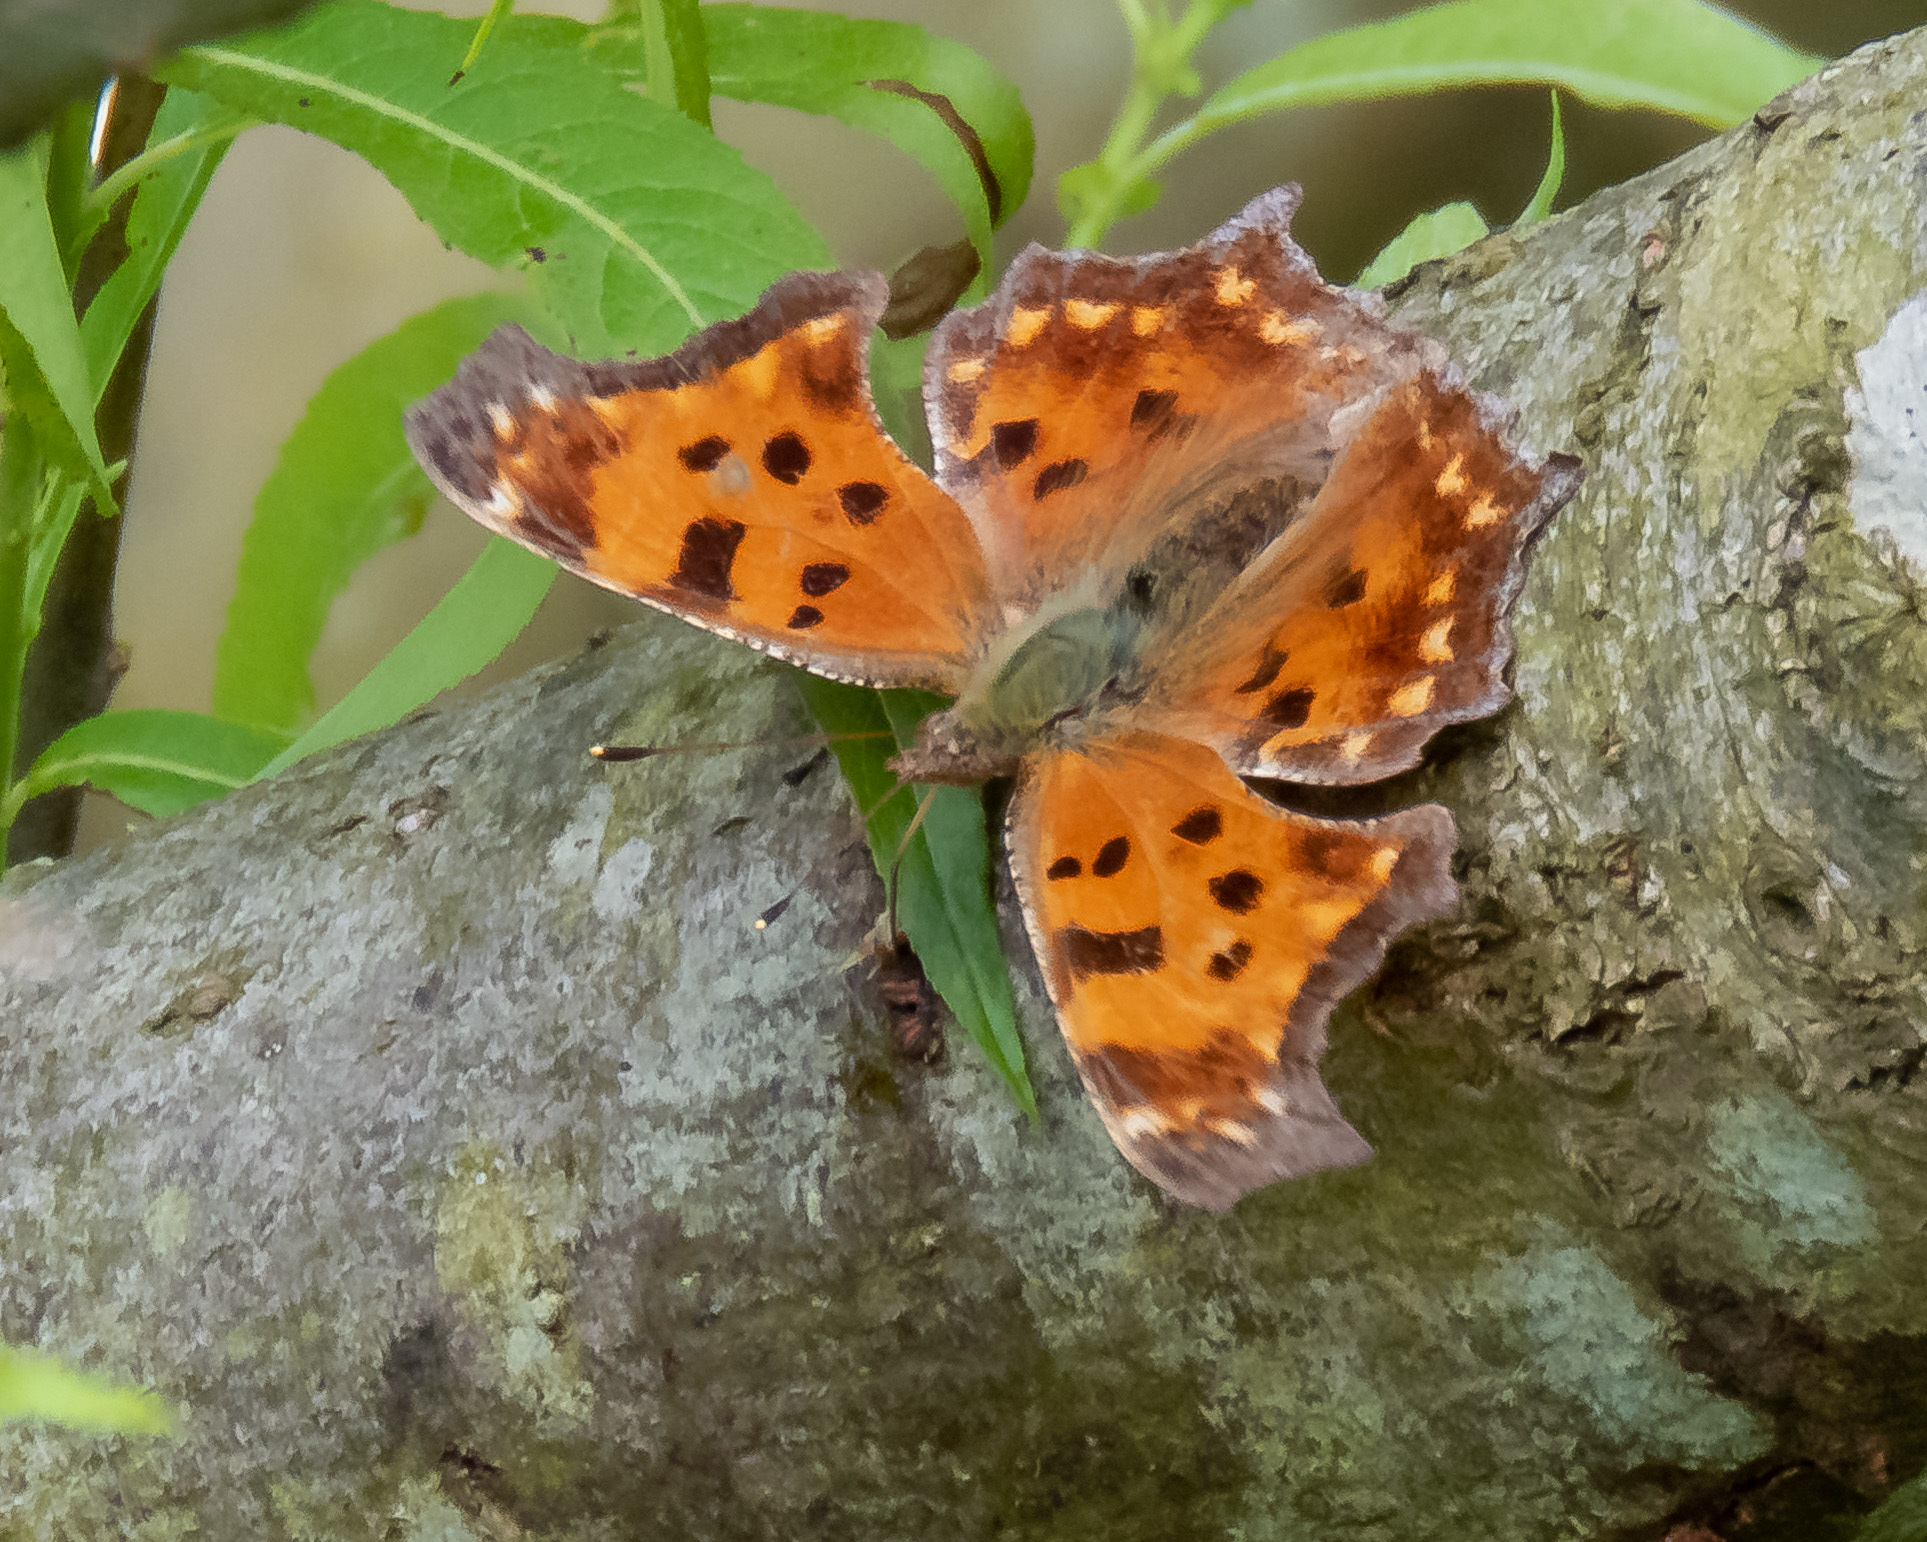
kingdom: Animalia
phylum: Arthropoda
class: Insecta
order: Lepidoptera
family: Nymphalidae
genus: Polygonia
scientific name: Polygonia comma
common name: Eastern comma
